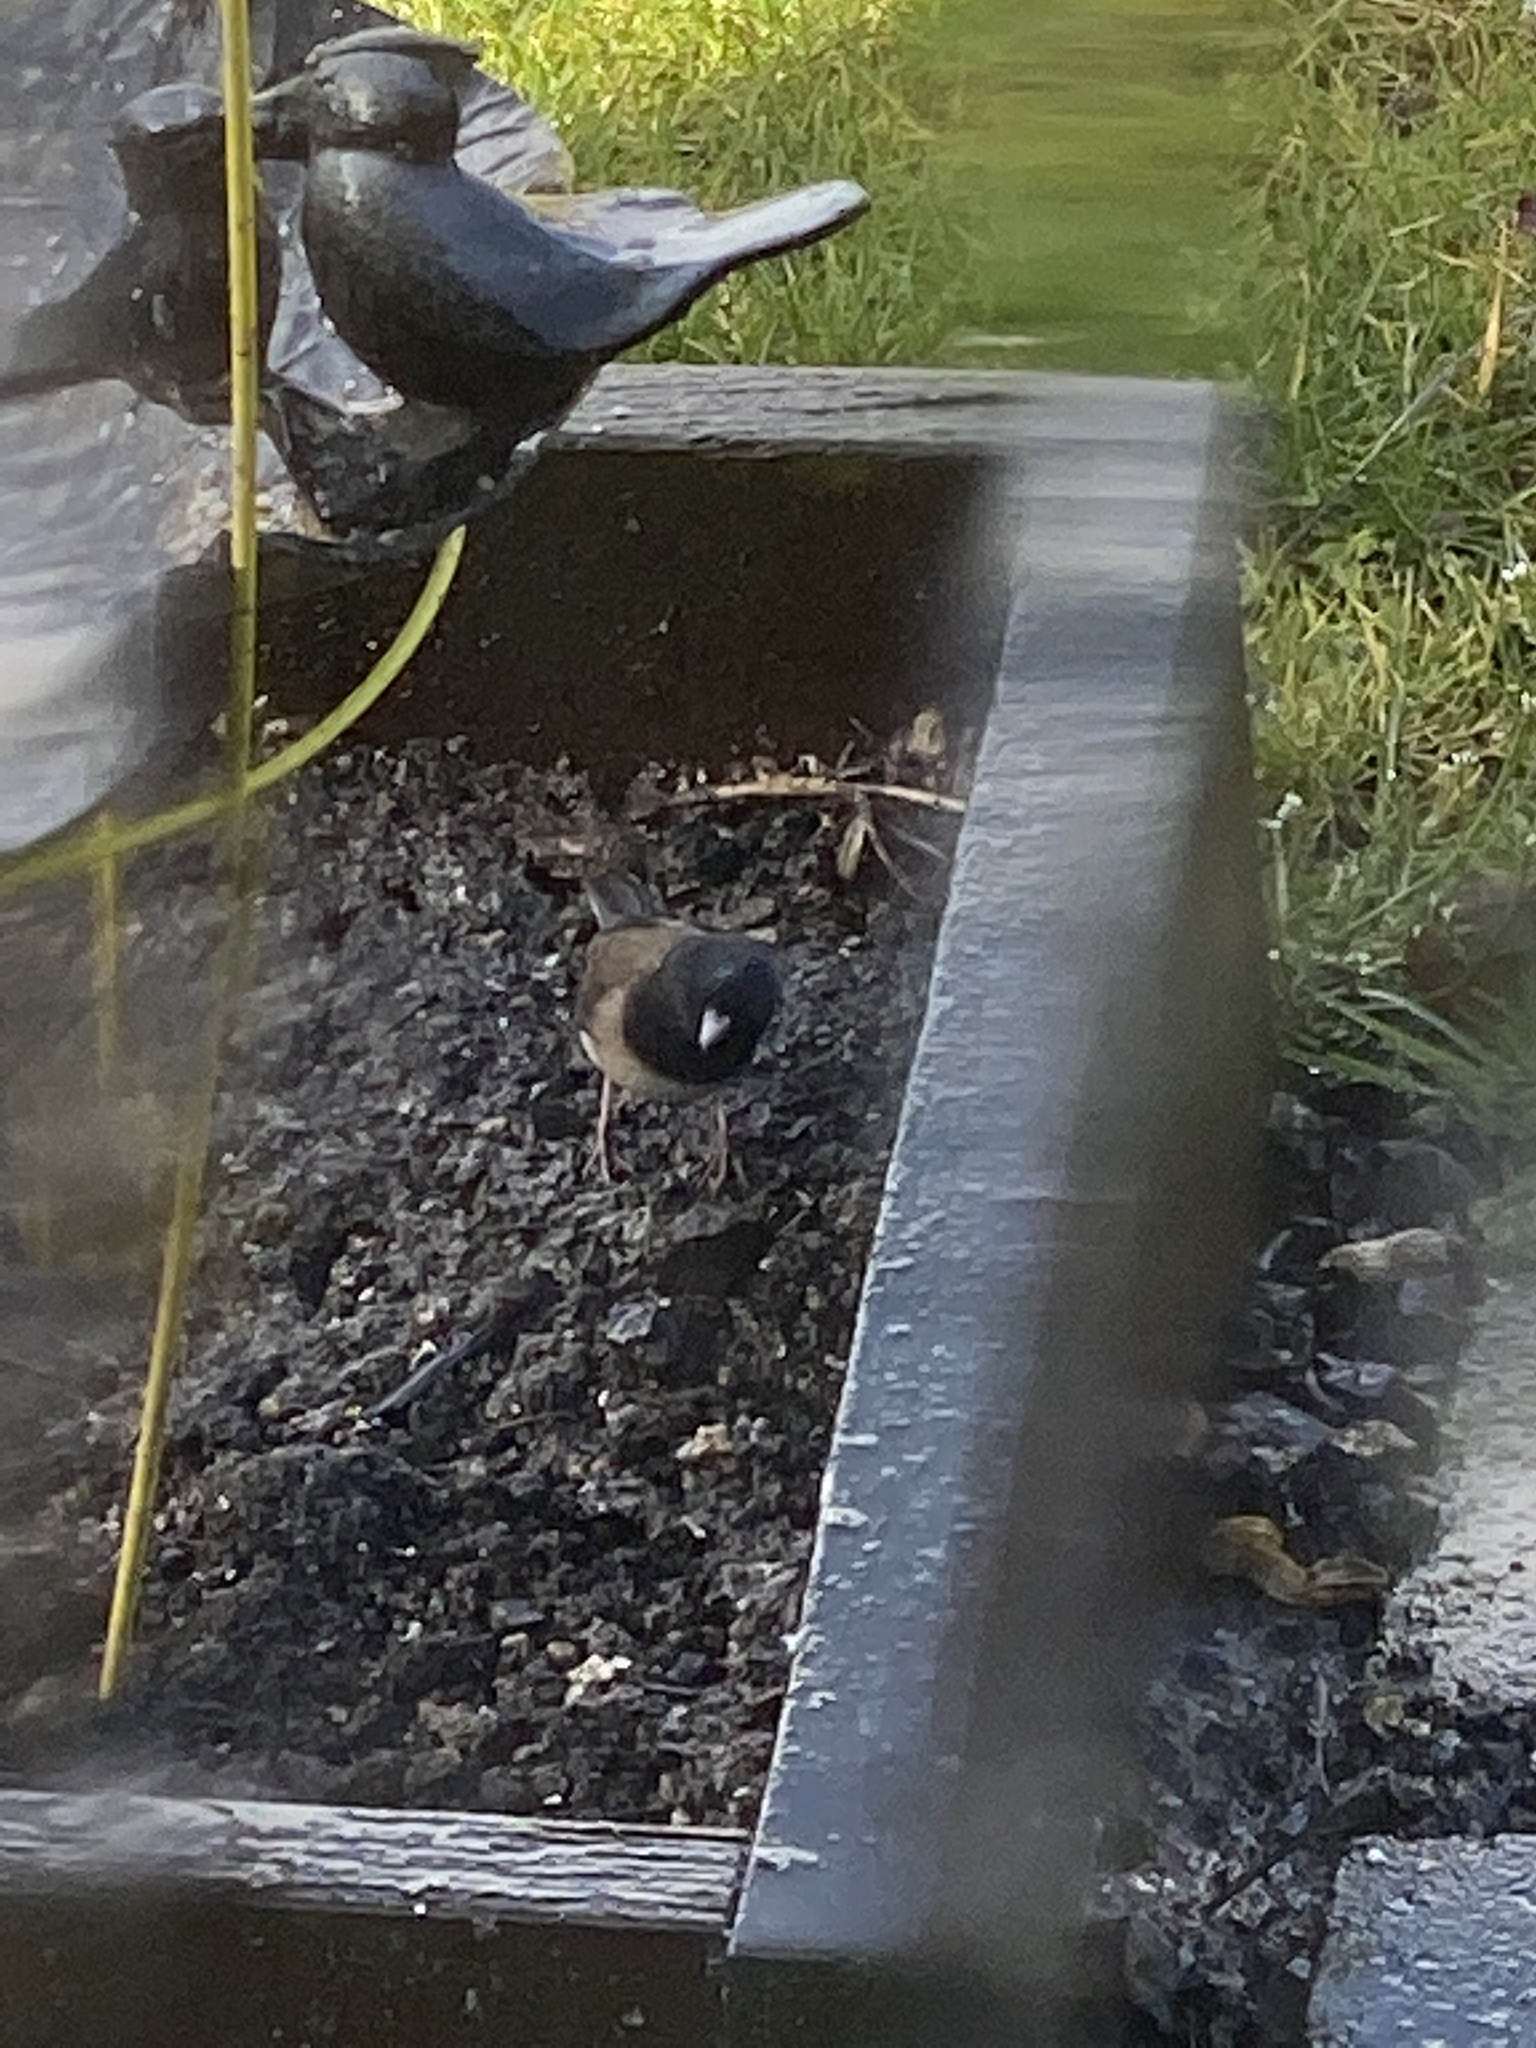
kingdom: Animalia
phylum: Chordata
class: Aves
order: Passeriformes
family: Passerellidae
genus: Junco
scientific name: Junco hyemalis
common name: Dark-eyed junco
